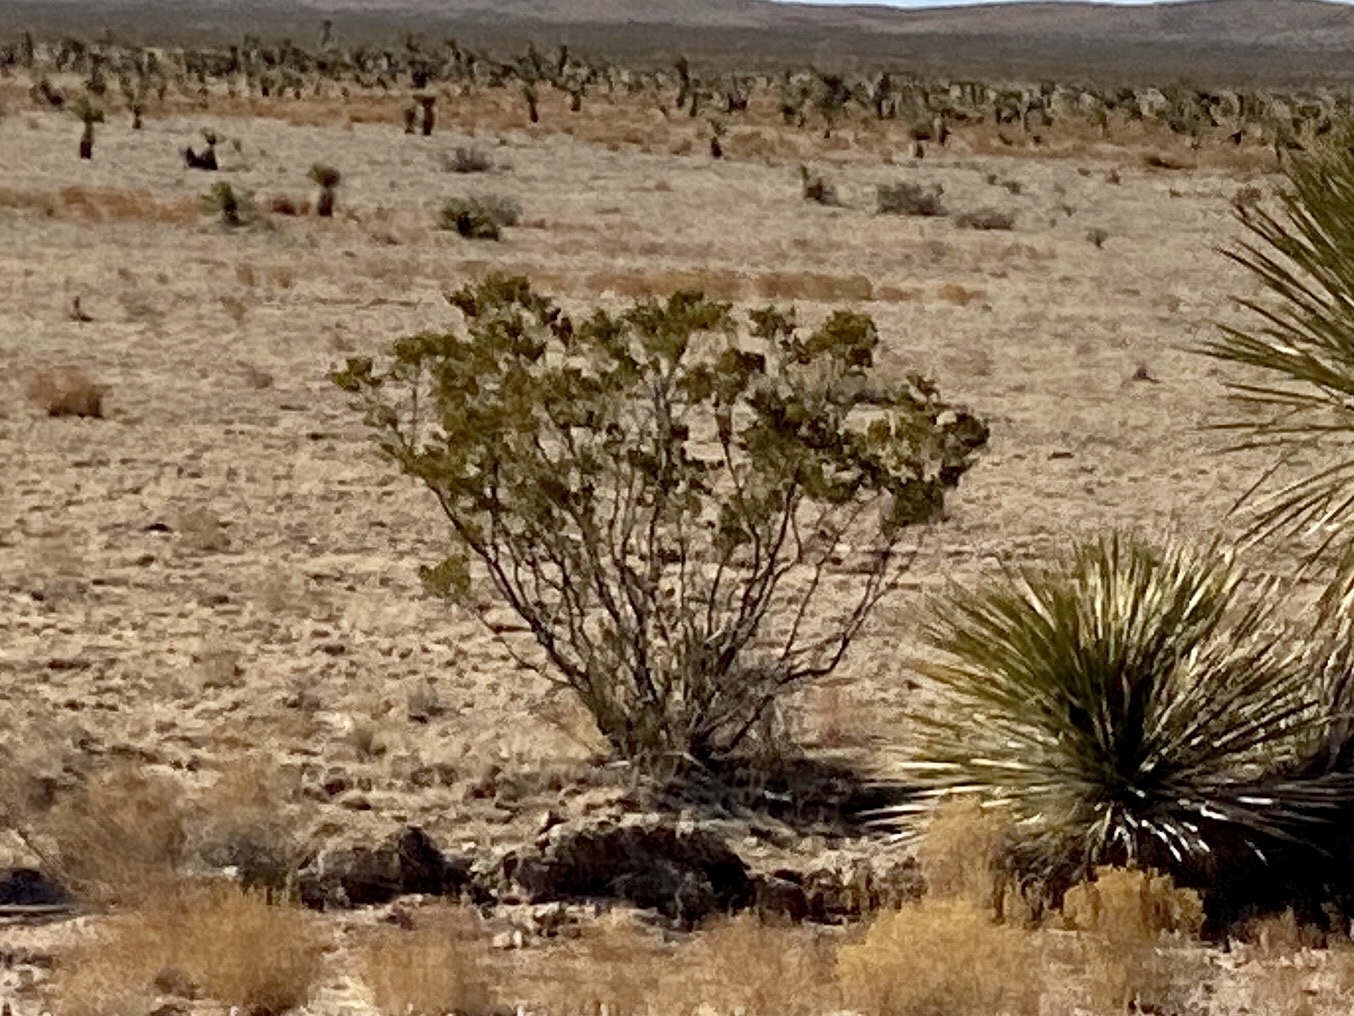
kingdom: Plantae
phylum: Tracheophyta
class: Magnoliopsida
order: Zygophyllales
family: Zygophyllaceae
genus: Larrea
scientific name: Larrea tridentata
